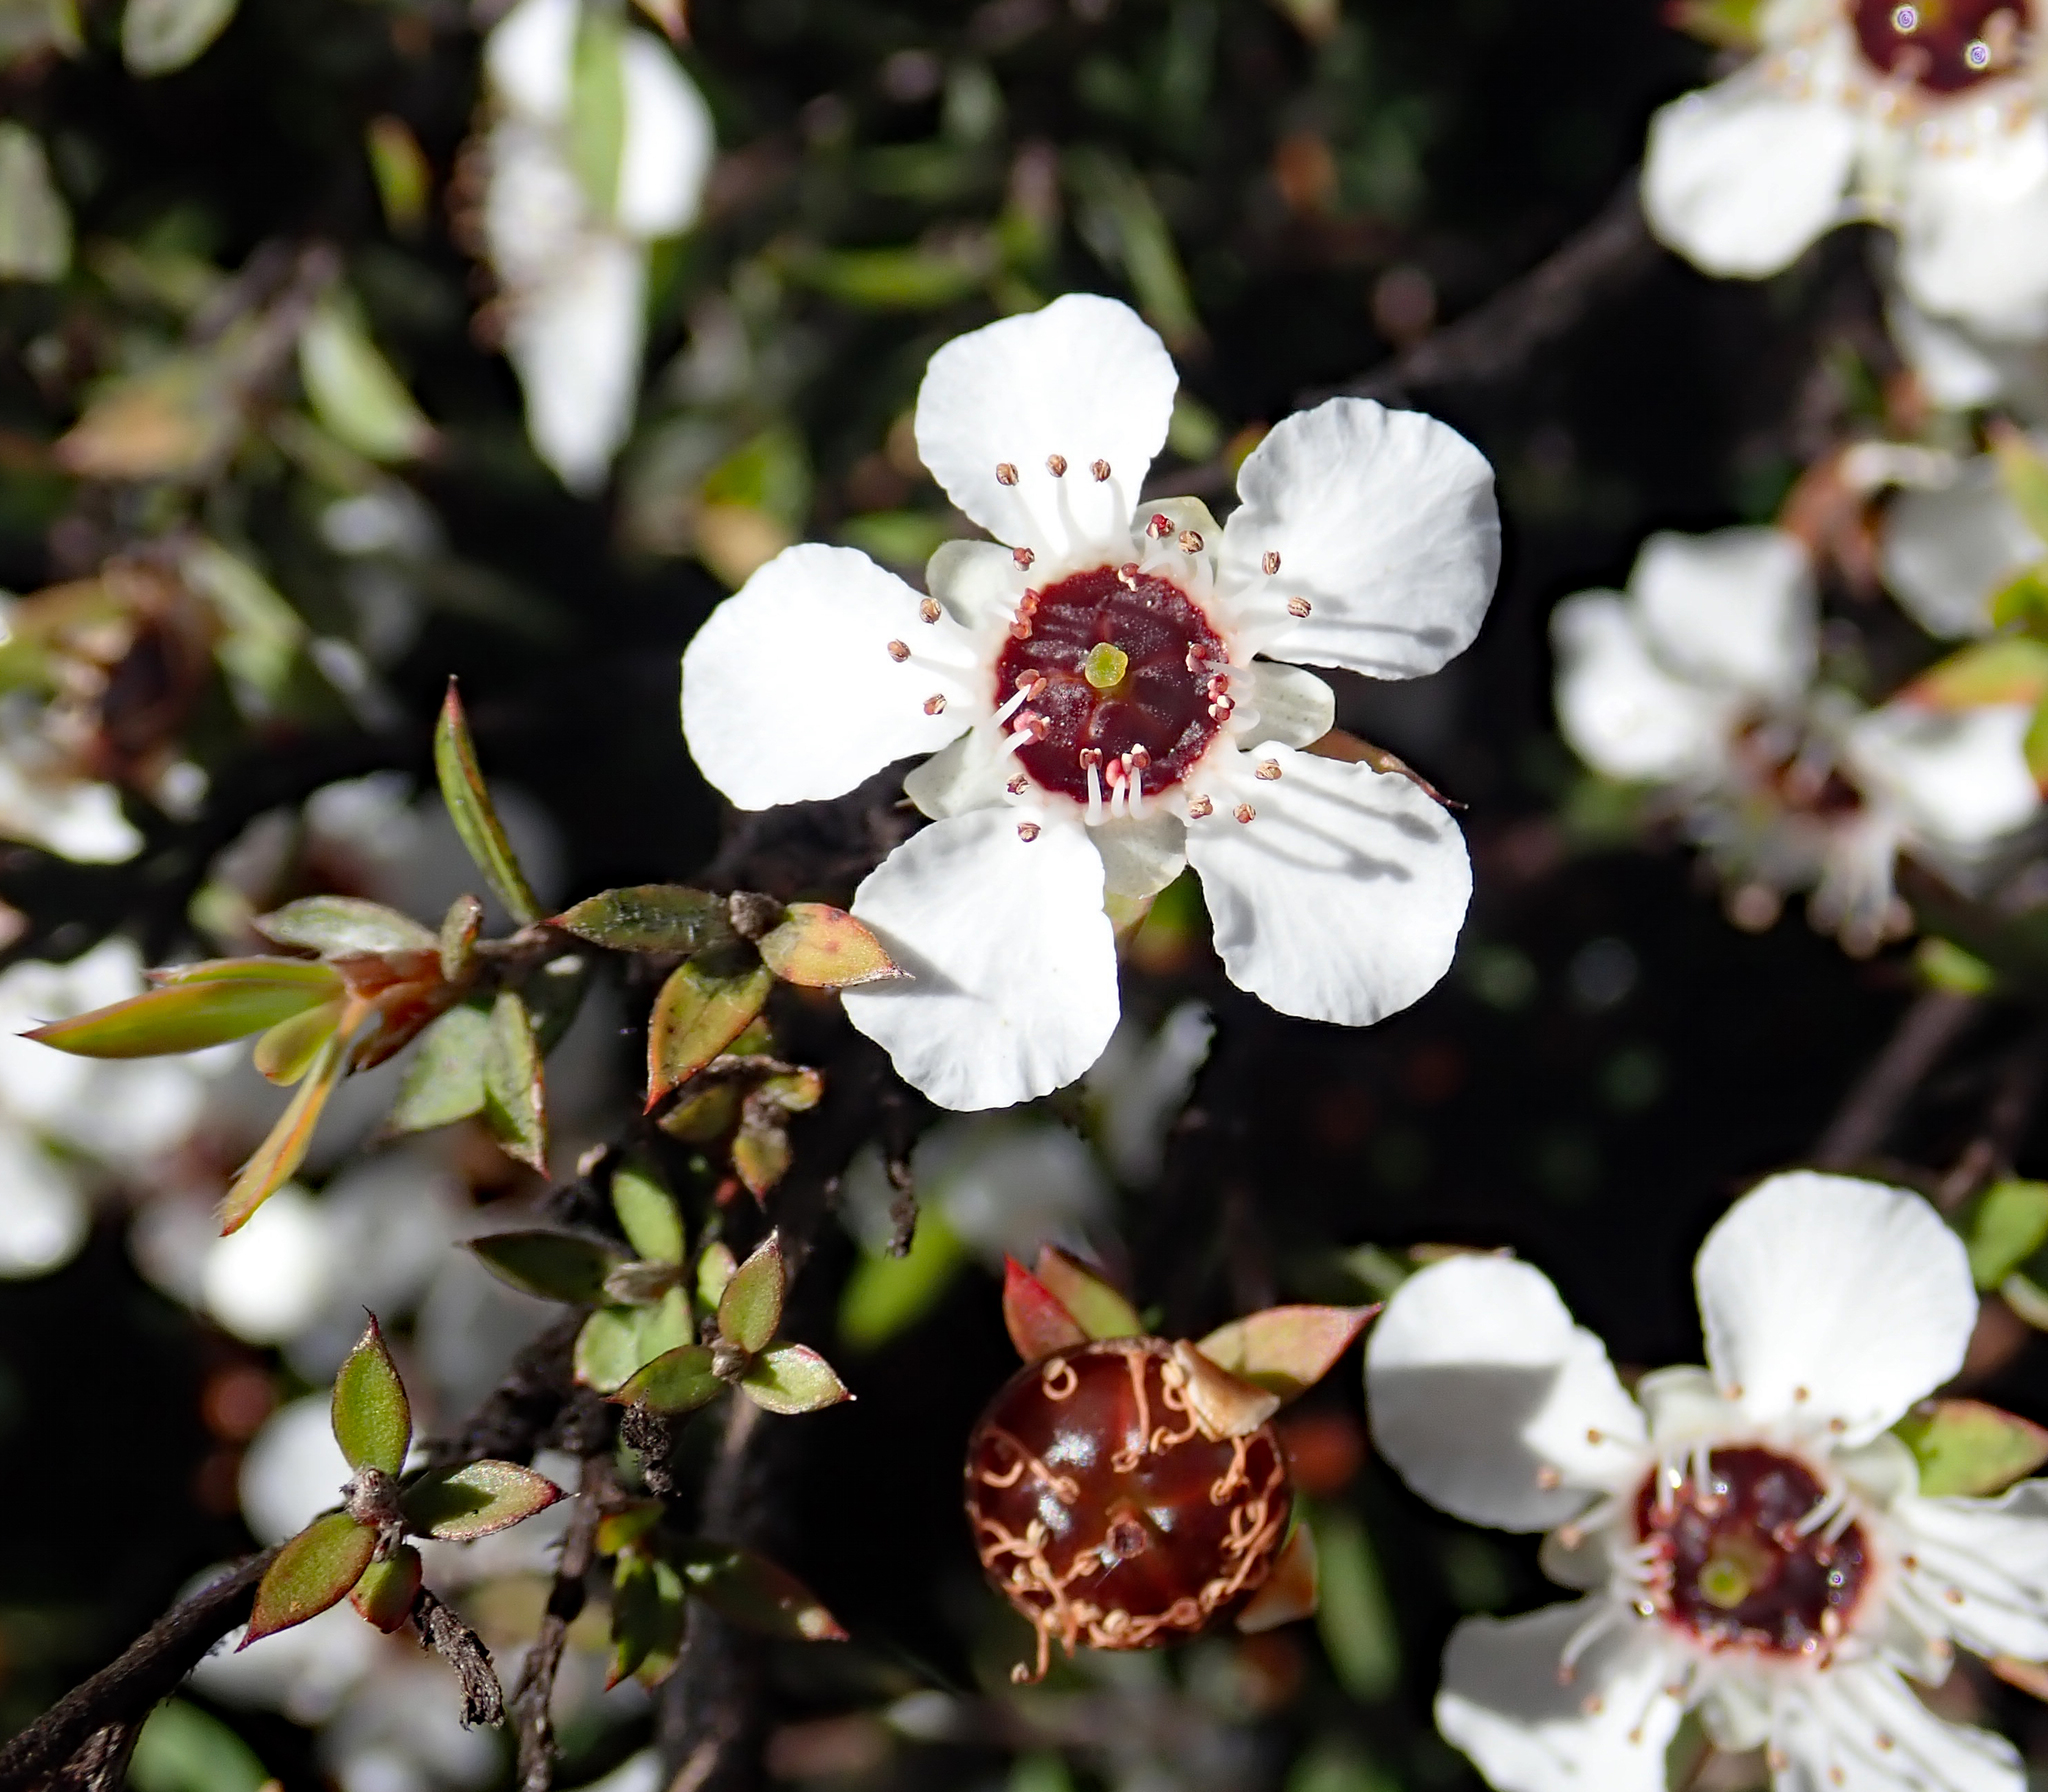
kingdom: Plantae
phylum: Tracheophyta
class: Magnoliopsida
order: Myrtales
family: Myrtaceae
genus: Leptospermum
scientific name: Leptospermum scoparium
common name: Broom tea-tree
